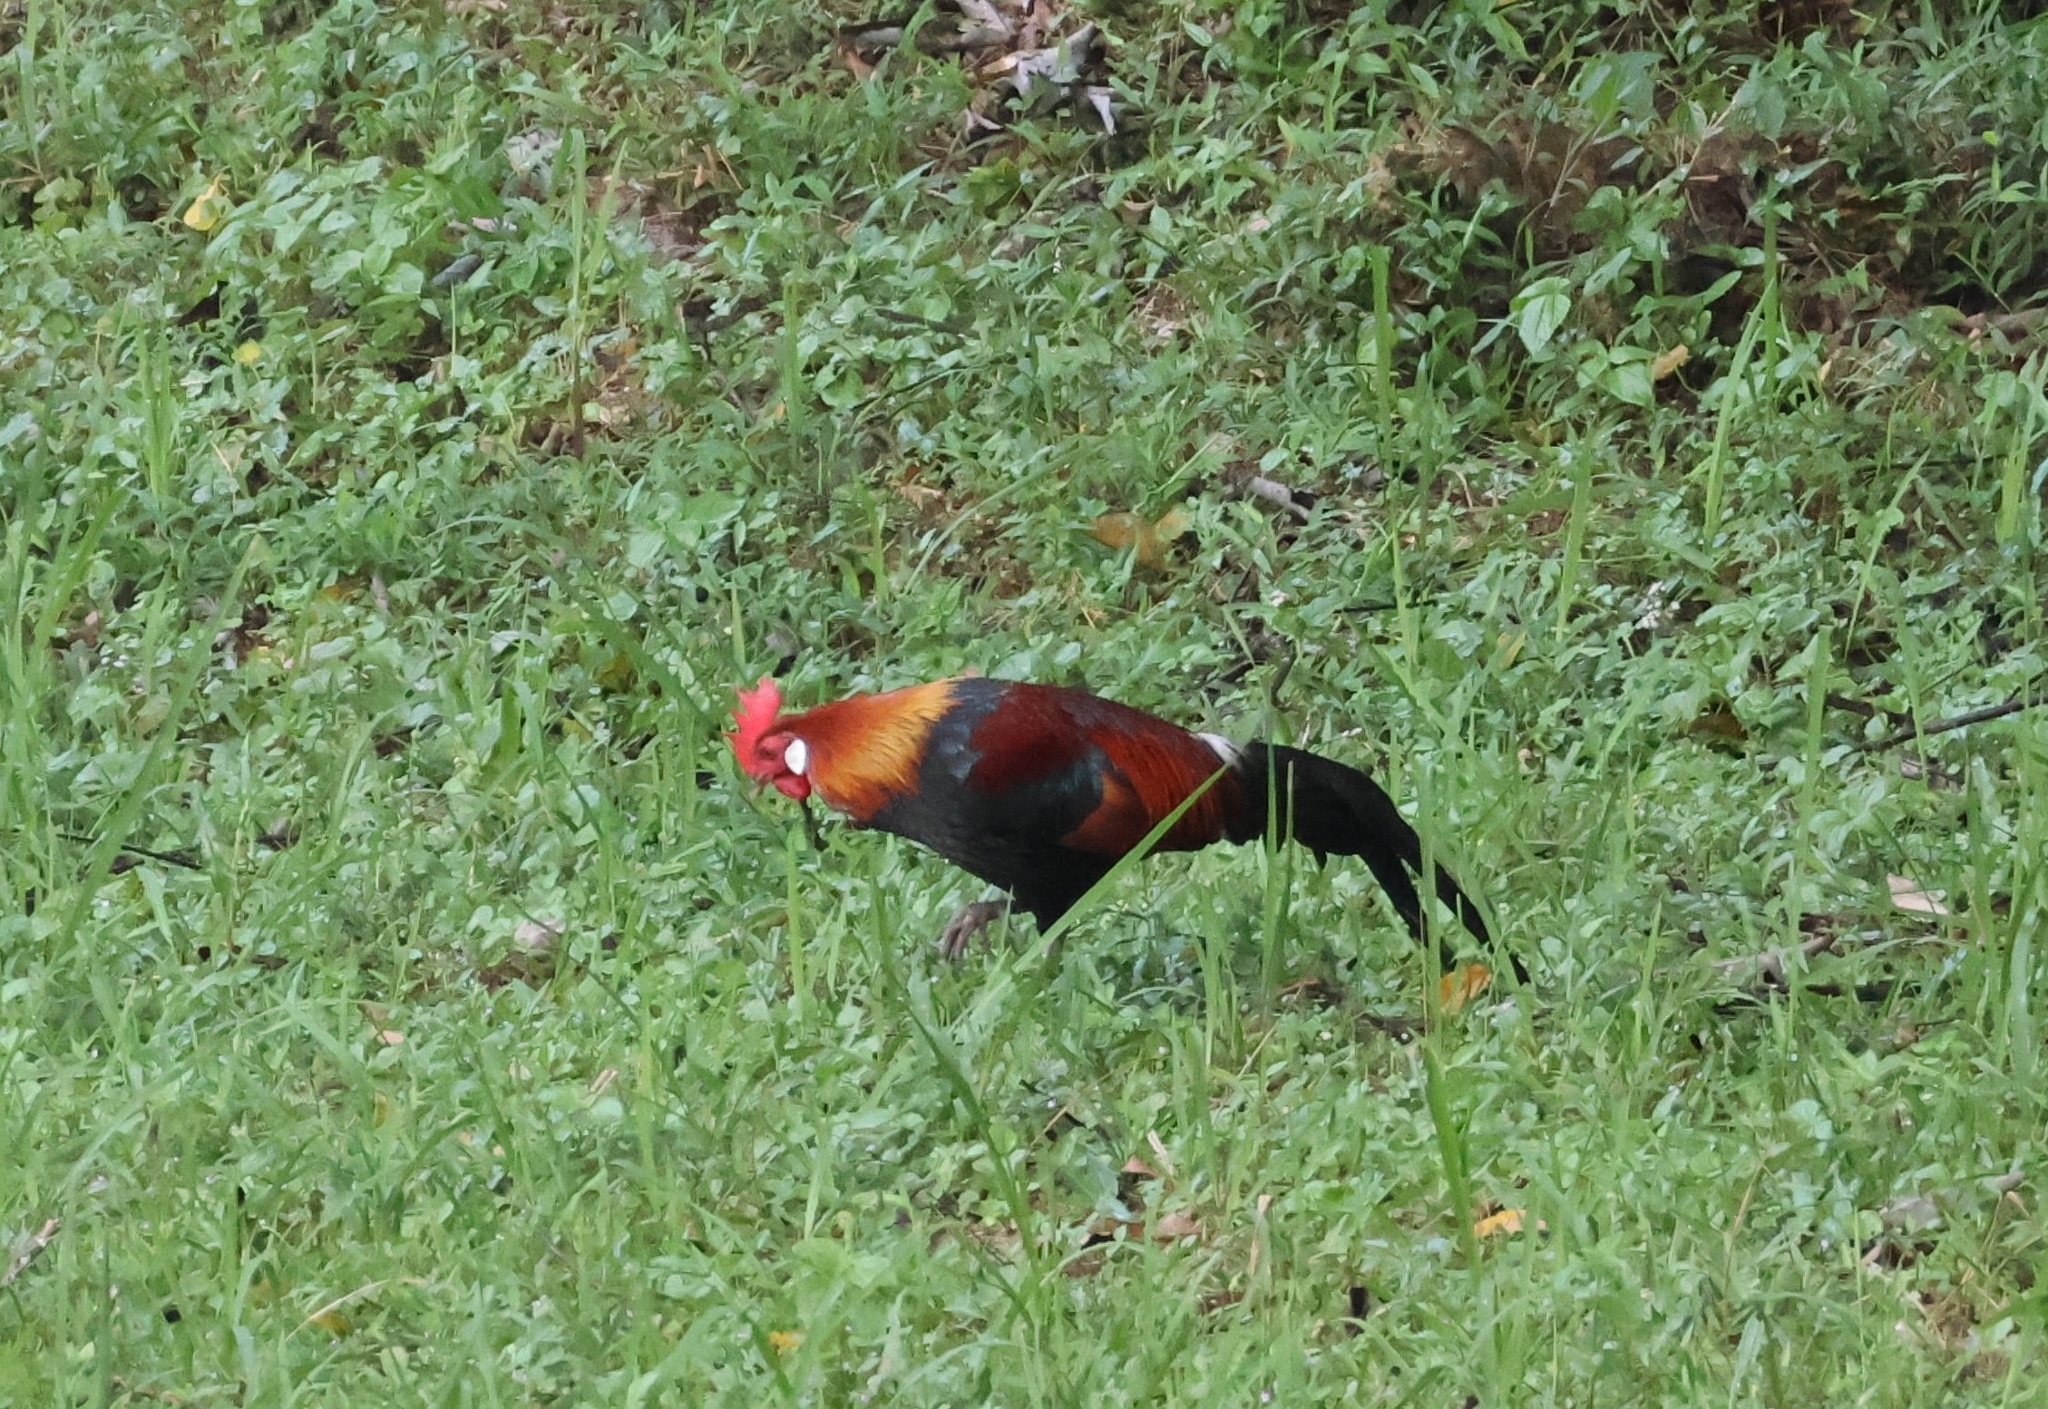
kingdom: Animalia
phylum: Chordata
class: Aves
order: Galliformes
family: Phasianidae
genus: Gallus
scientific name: Gallus gallus
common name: Red junglefowl
